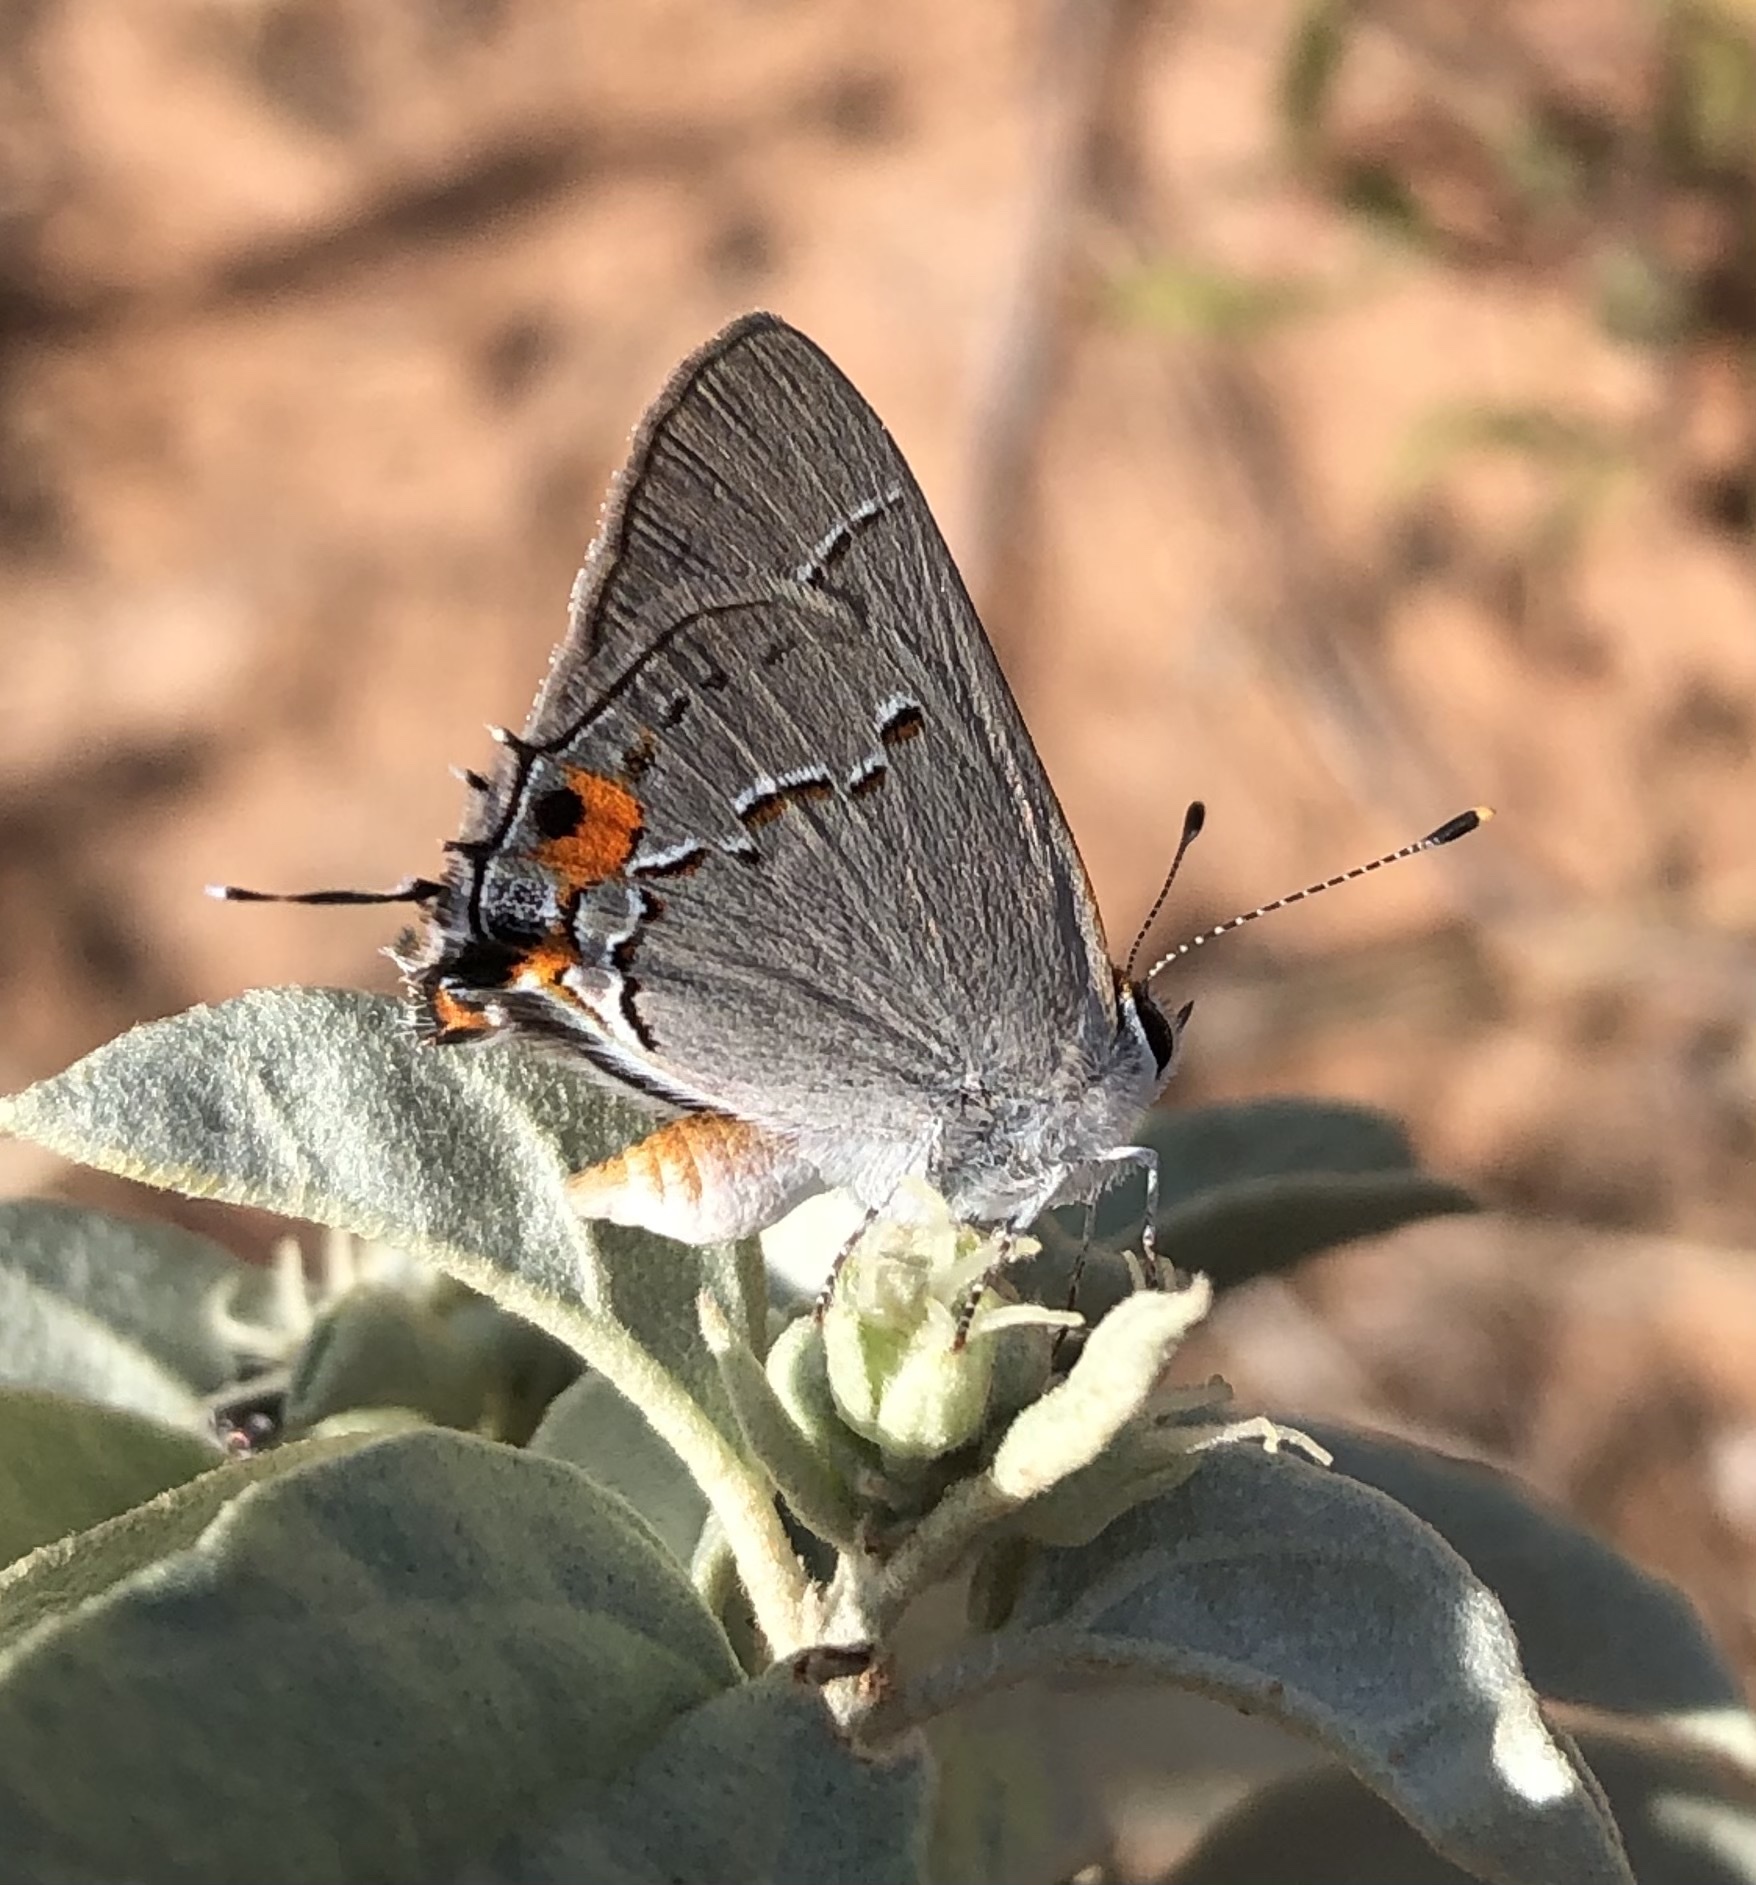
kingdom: Animalia
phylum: Arthropoda
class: Insecta
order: Lepidoptera
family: Lycaenidae
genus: Strymon
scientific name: Strymon melinus
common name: Gray hairstreak
